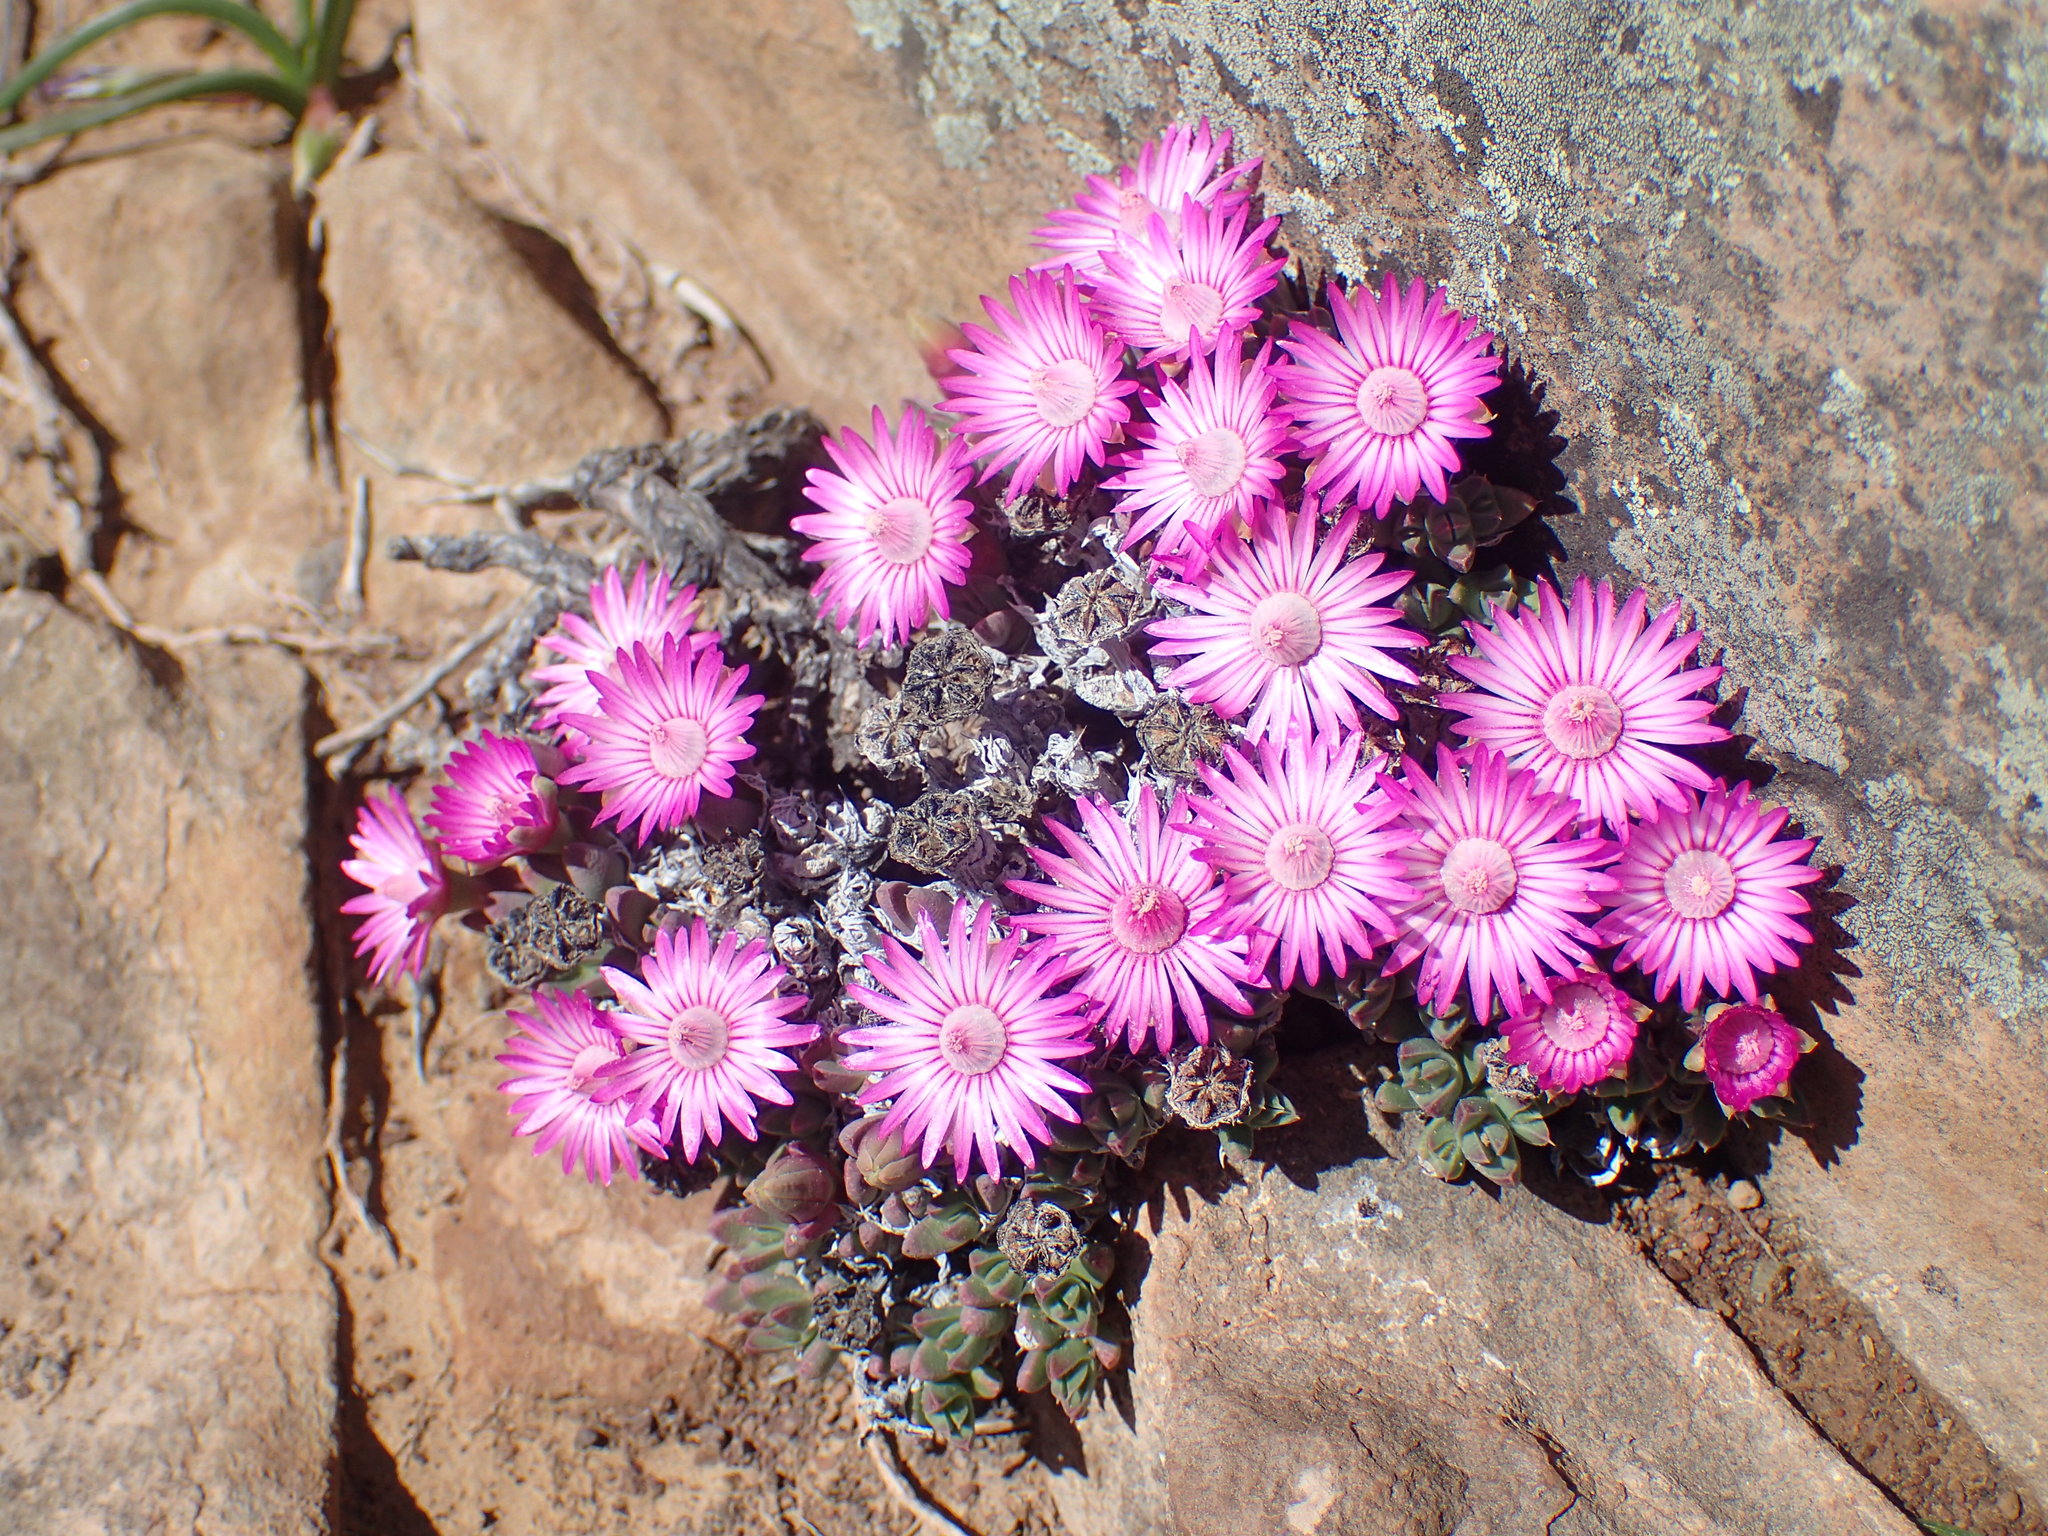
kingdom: Plantae
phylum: Tracheophyta
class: Magnoliopsida
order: Caryophyllales
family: Aizoaceae
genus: Antimima
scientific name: Antimima loganii
